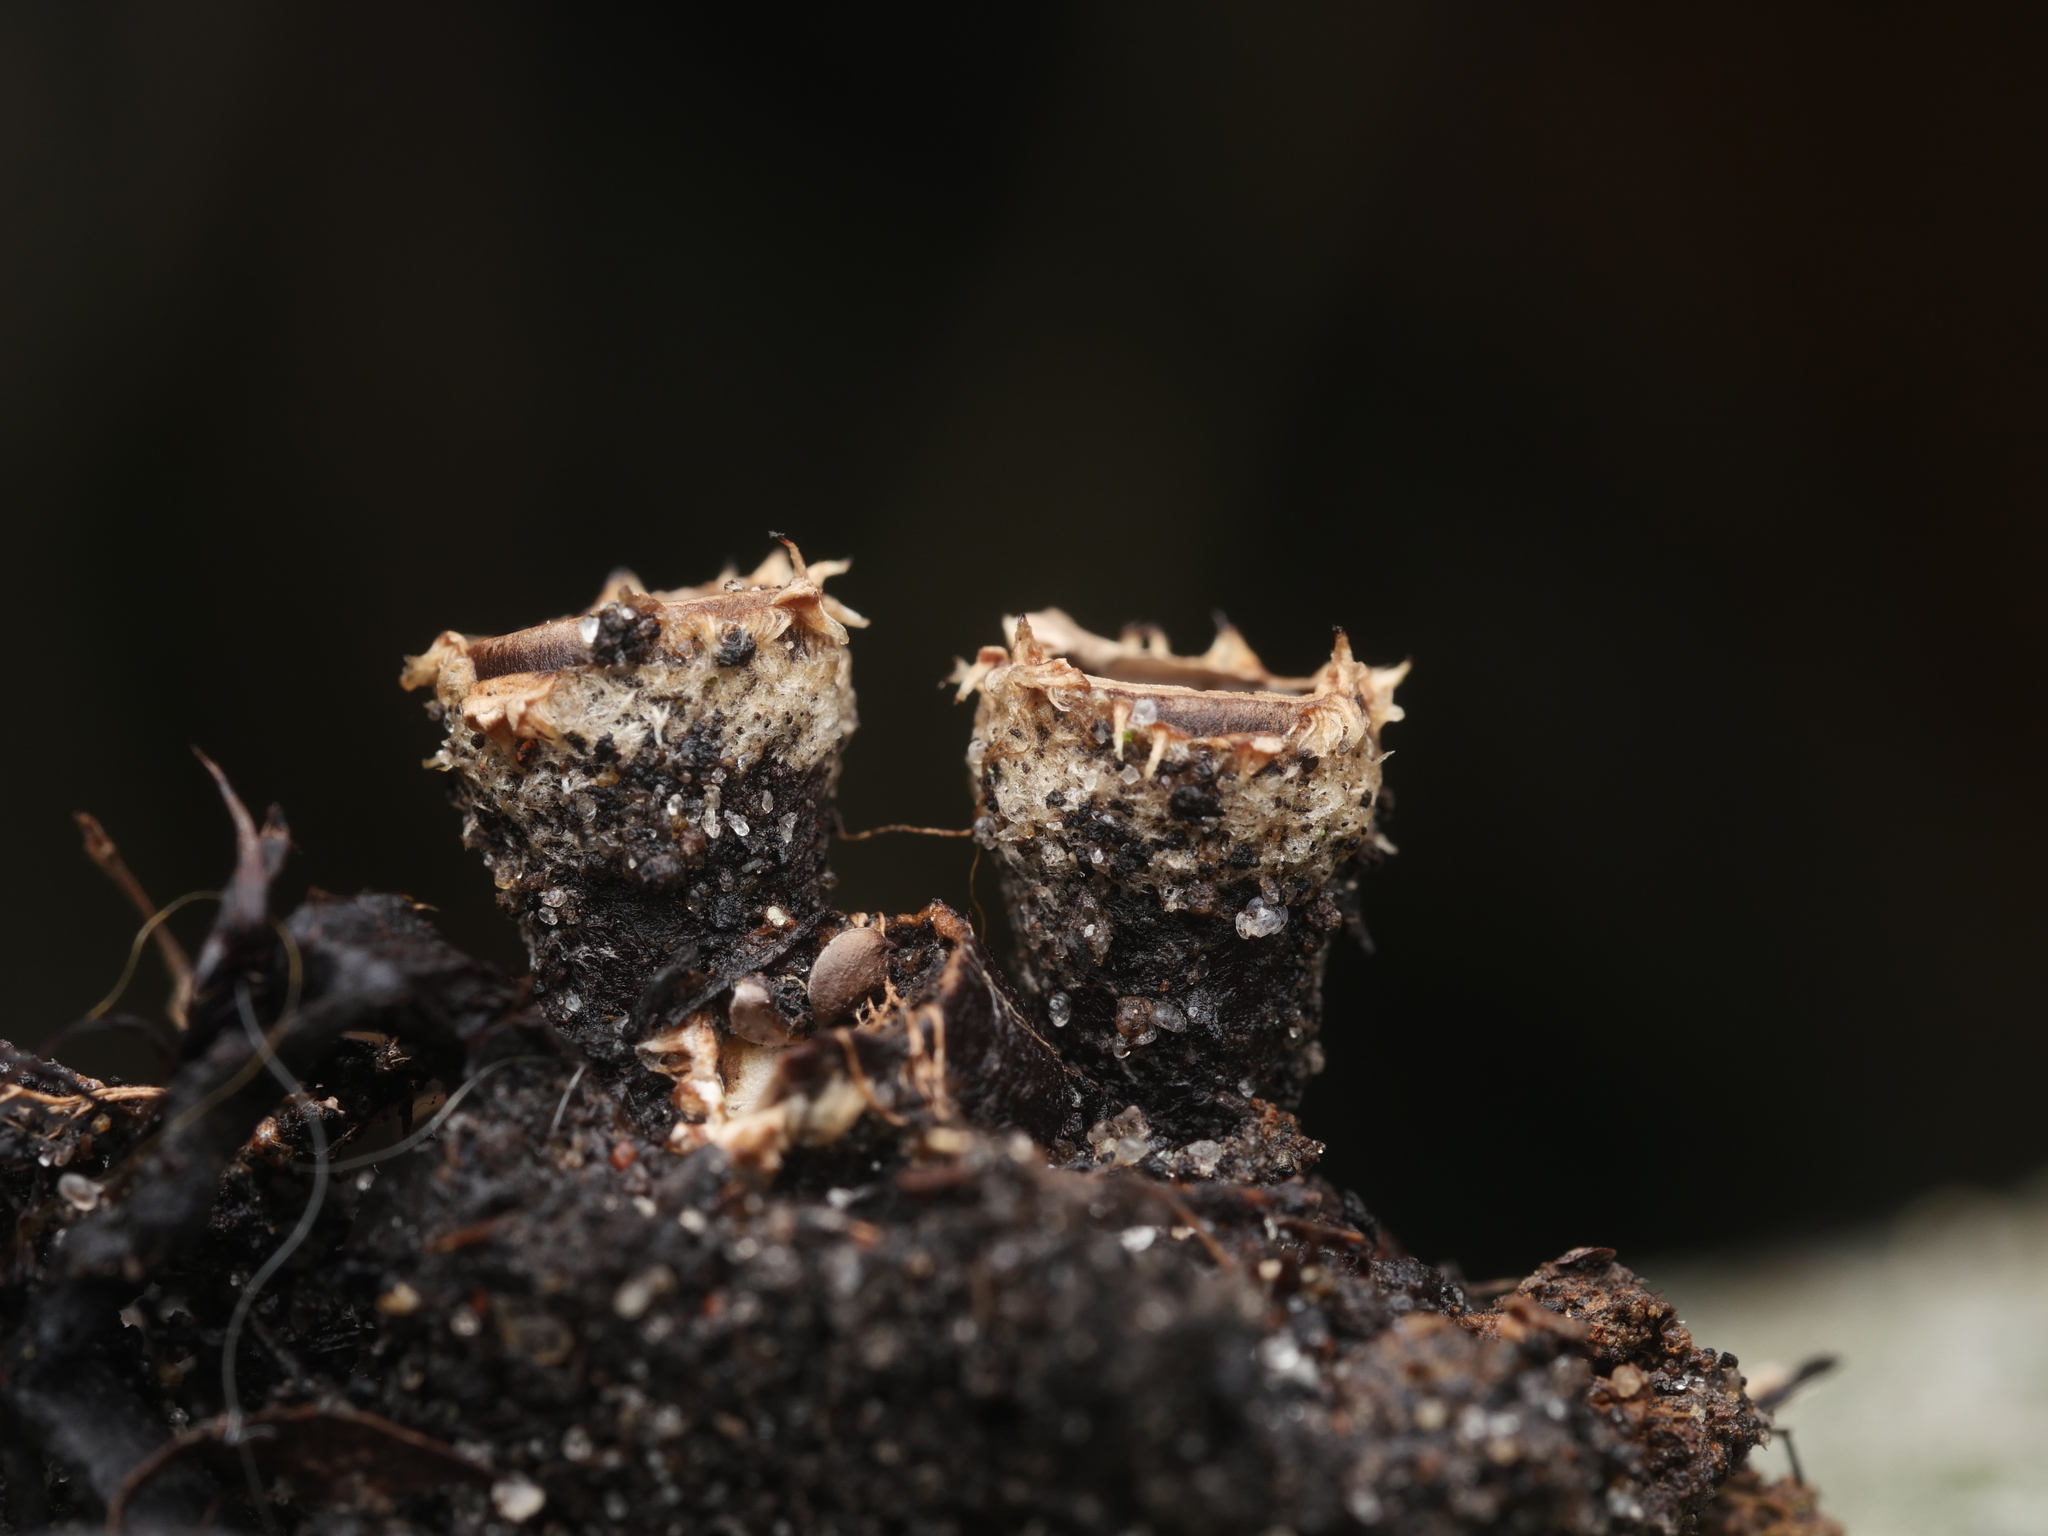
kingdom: Fungi
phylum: Basidiomycota
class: Agaricomycetes
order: Agaricales
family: Agaricaceae
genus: Cyathus
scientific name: Cyathus stercoreus
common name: Dung bird's nest
